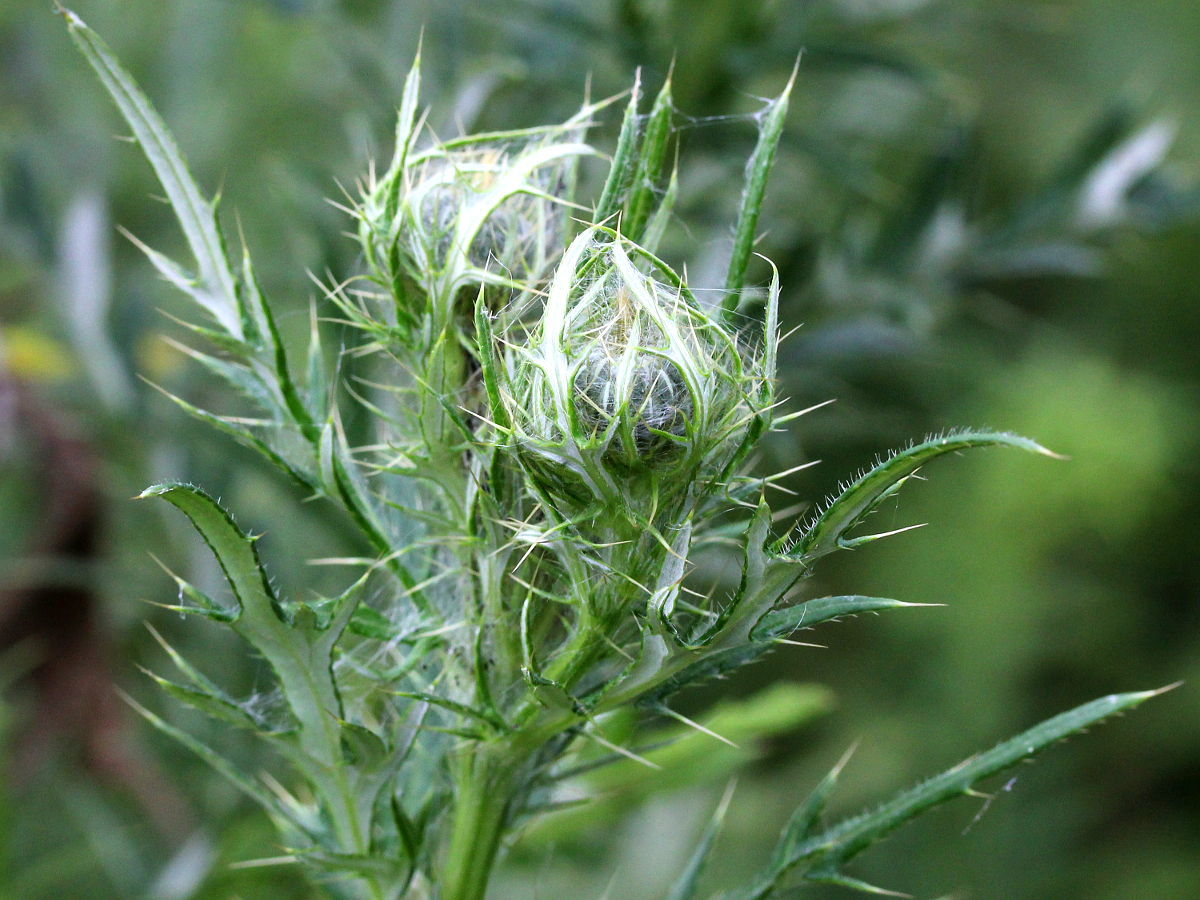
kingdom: Plantae
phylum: Tracheophyta
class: Magnoliopsida
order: Asterales
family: Asteraceae
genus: Cirsium
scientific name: Cirsium discolor
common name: Field thistle
